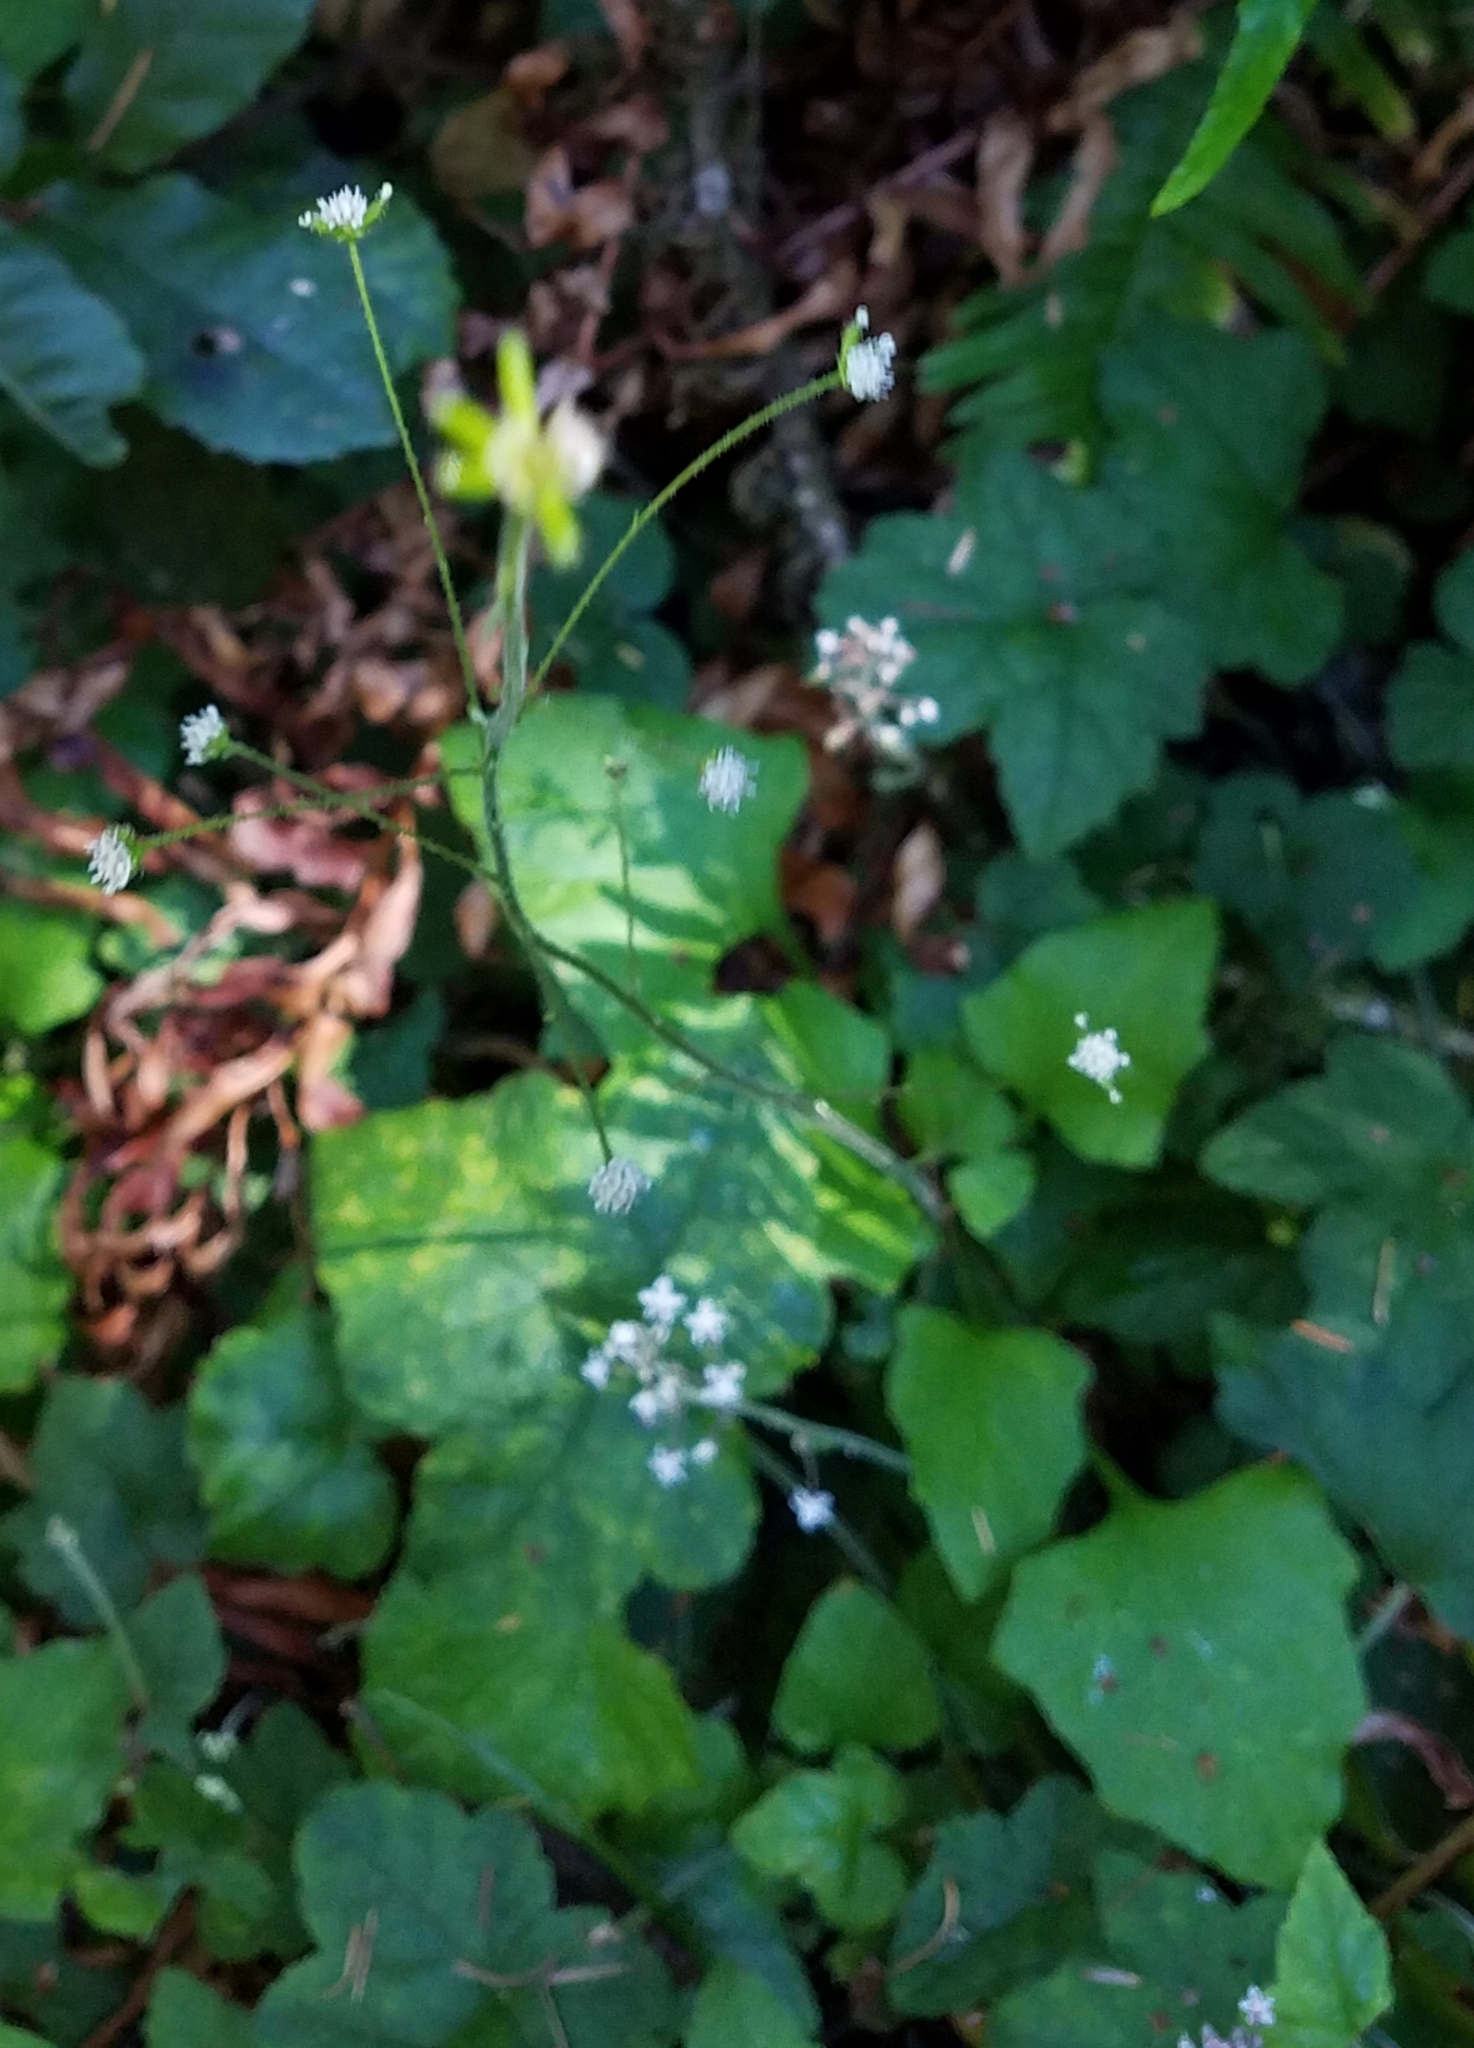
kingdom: Plantae
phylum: Tracheophyta
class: Magnoliopsida
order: Asterales
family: Asteraceae
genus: Adenocaulon
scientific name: Adenocaulon bicolor
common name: Trailplant
